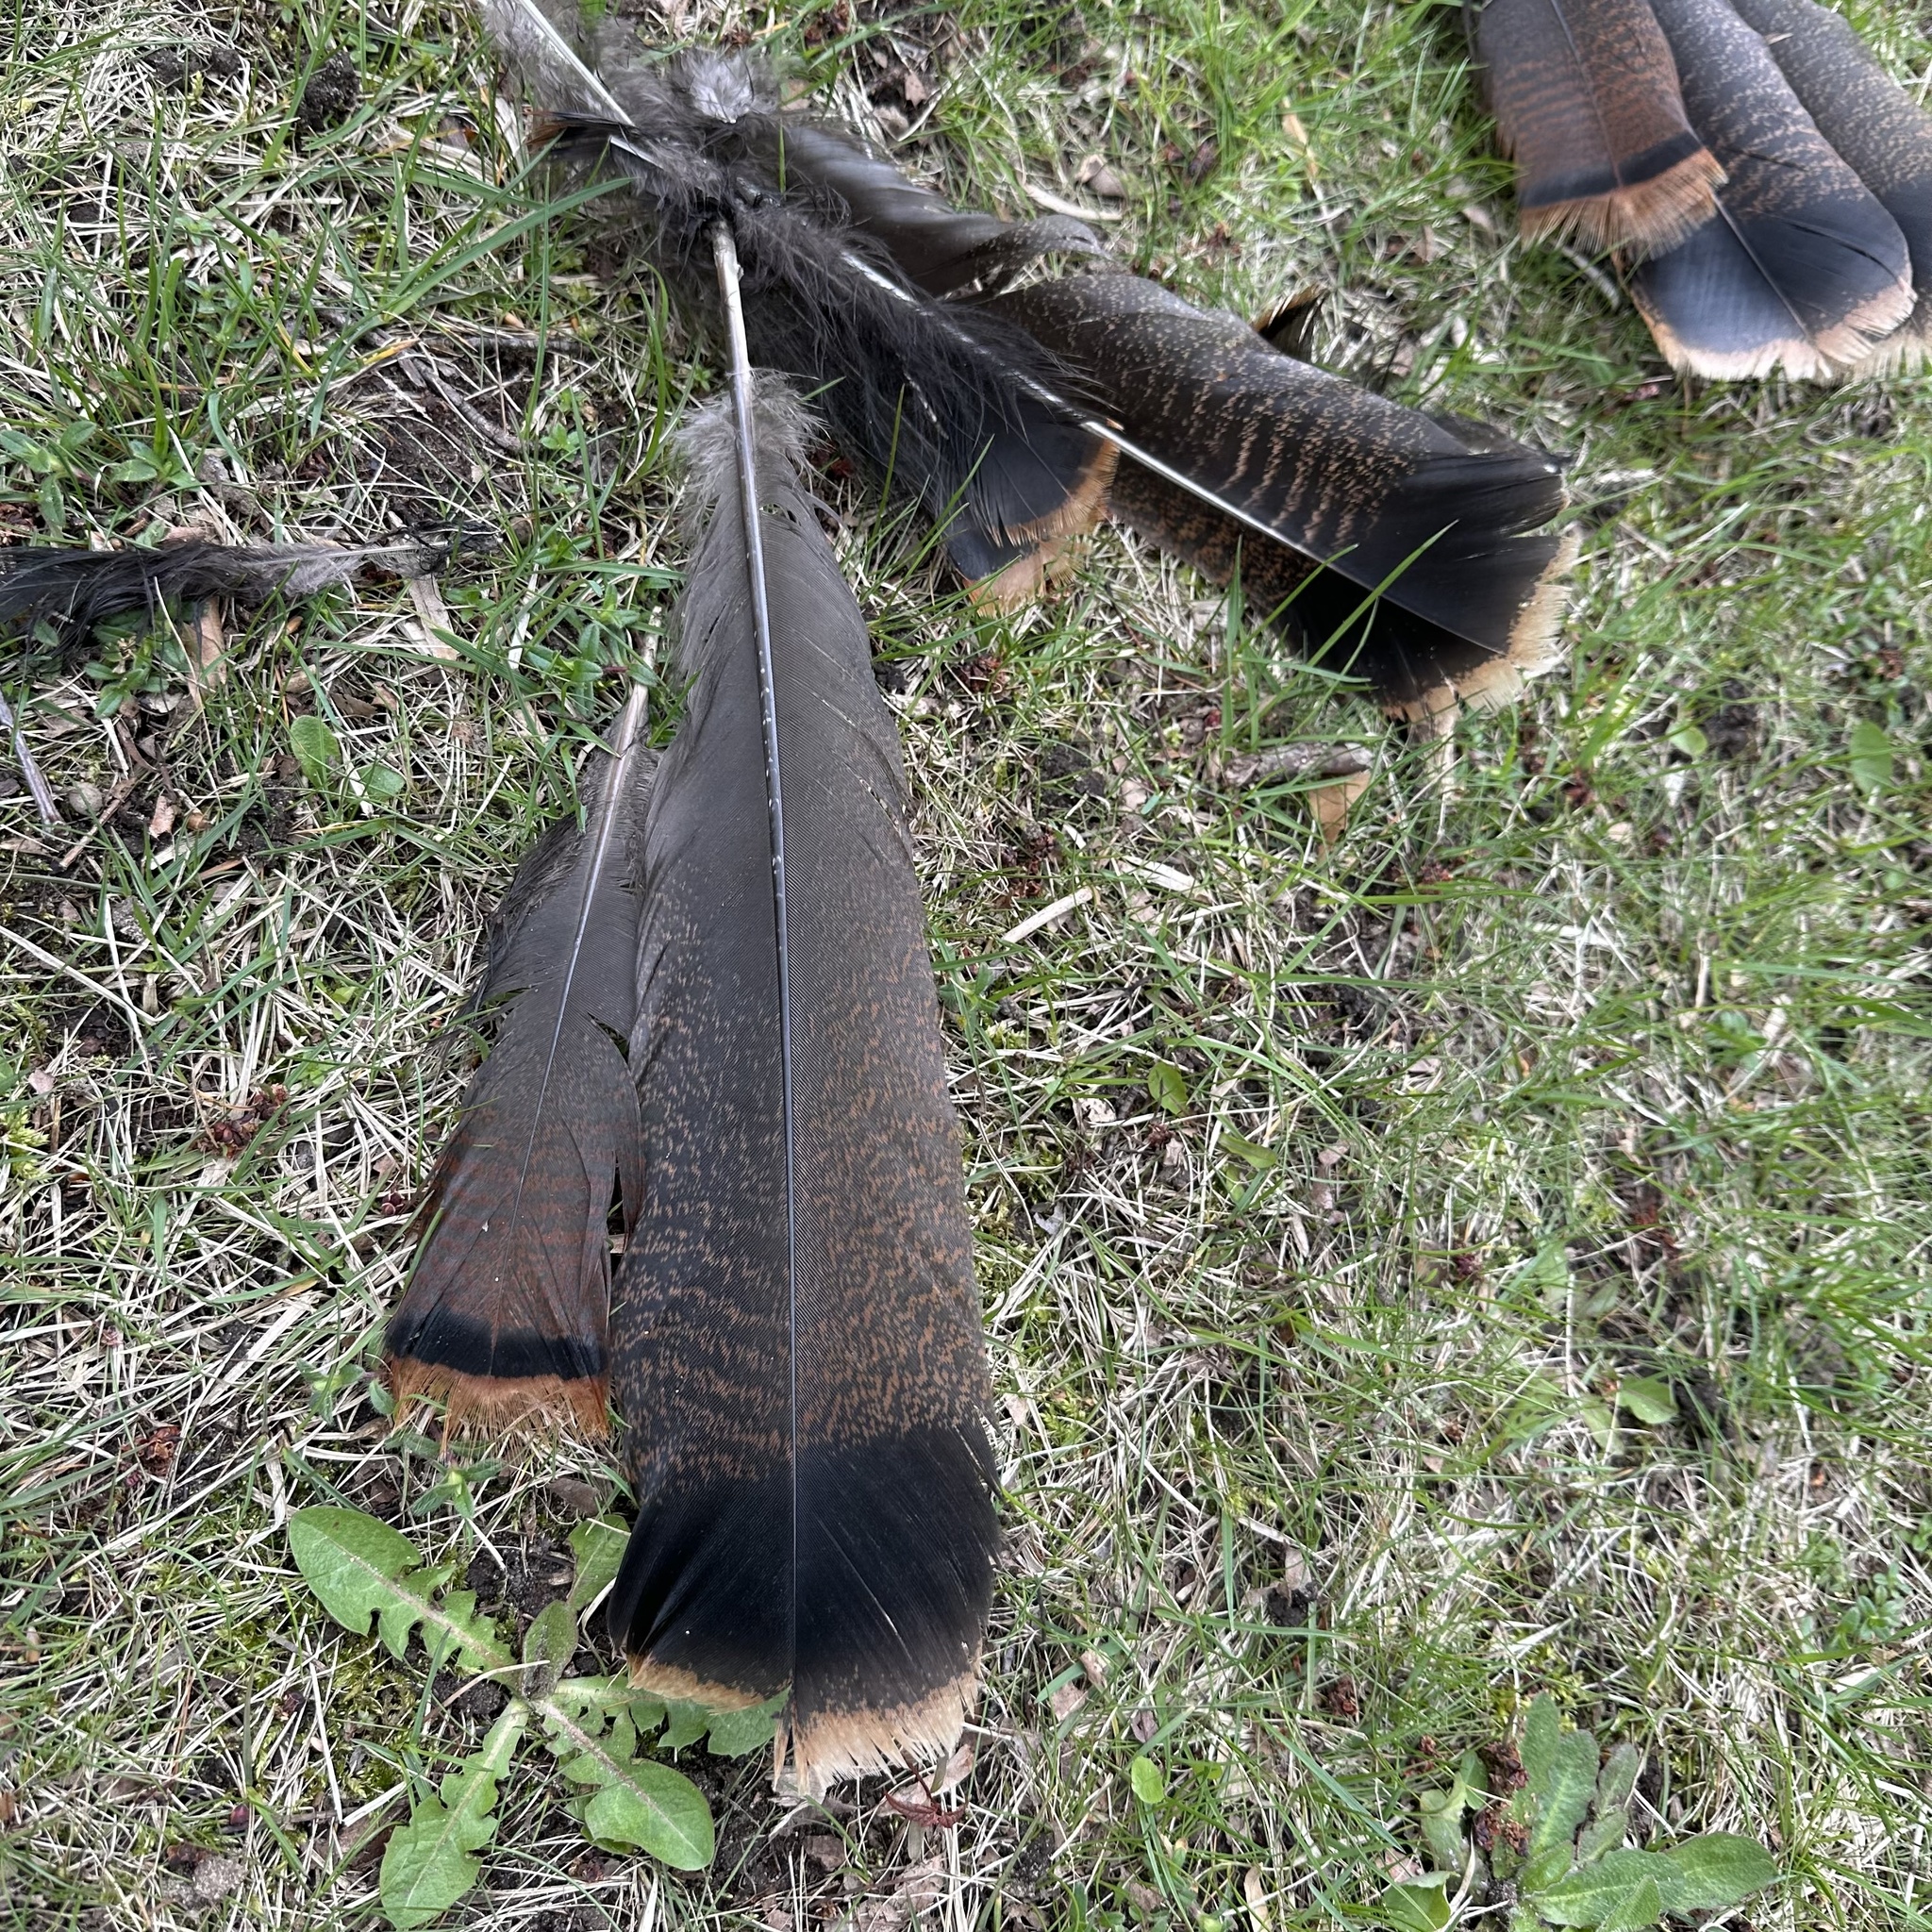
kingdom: Animalia
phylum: Chordata
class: Aves
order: Galliformes
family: Phasianidae
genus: Meleagris
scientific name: Meleagris gallopavo
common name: Wild turkey
